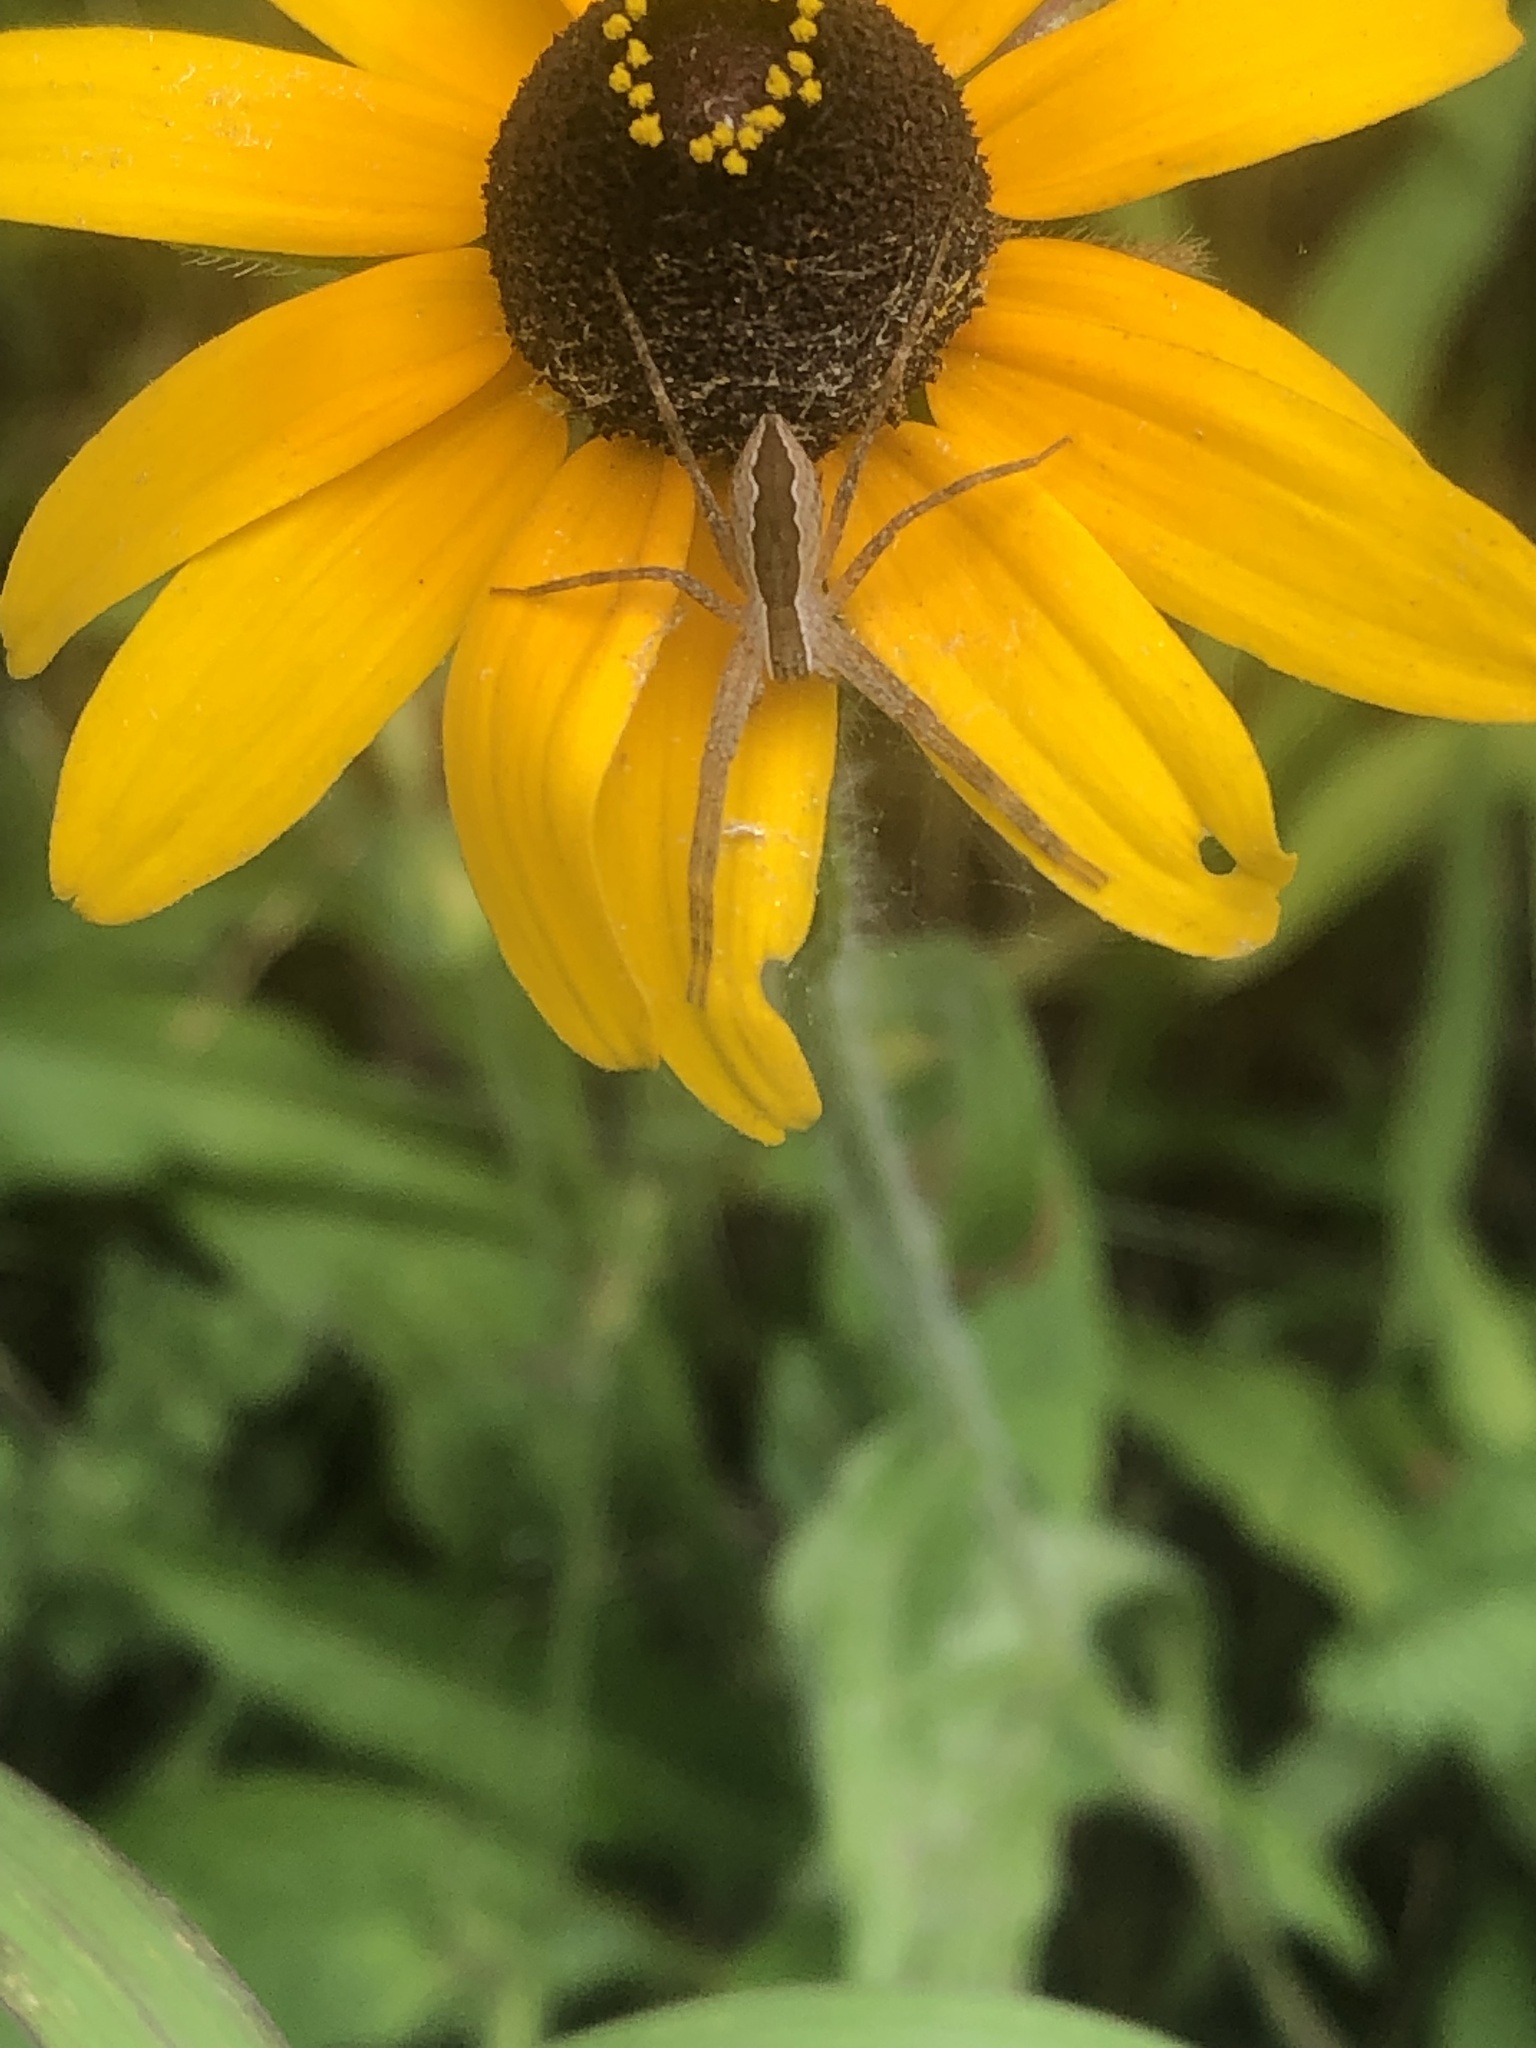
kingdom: Animalia
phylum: Arthropoda
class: Arachnida
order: Araneae
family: Pisauridae
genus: Pisaurina
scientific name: Pisaurina mira
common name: American nursery web spider
